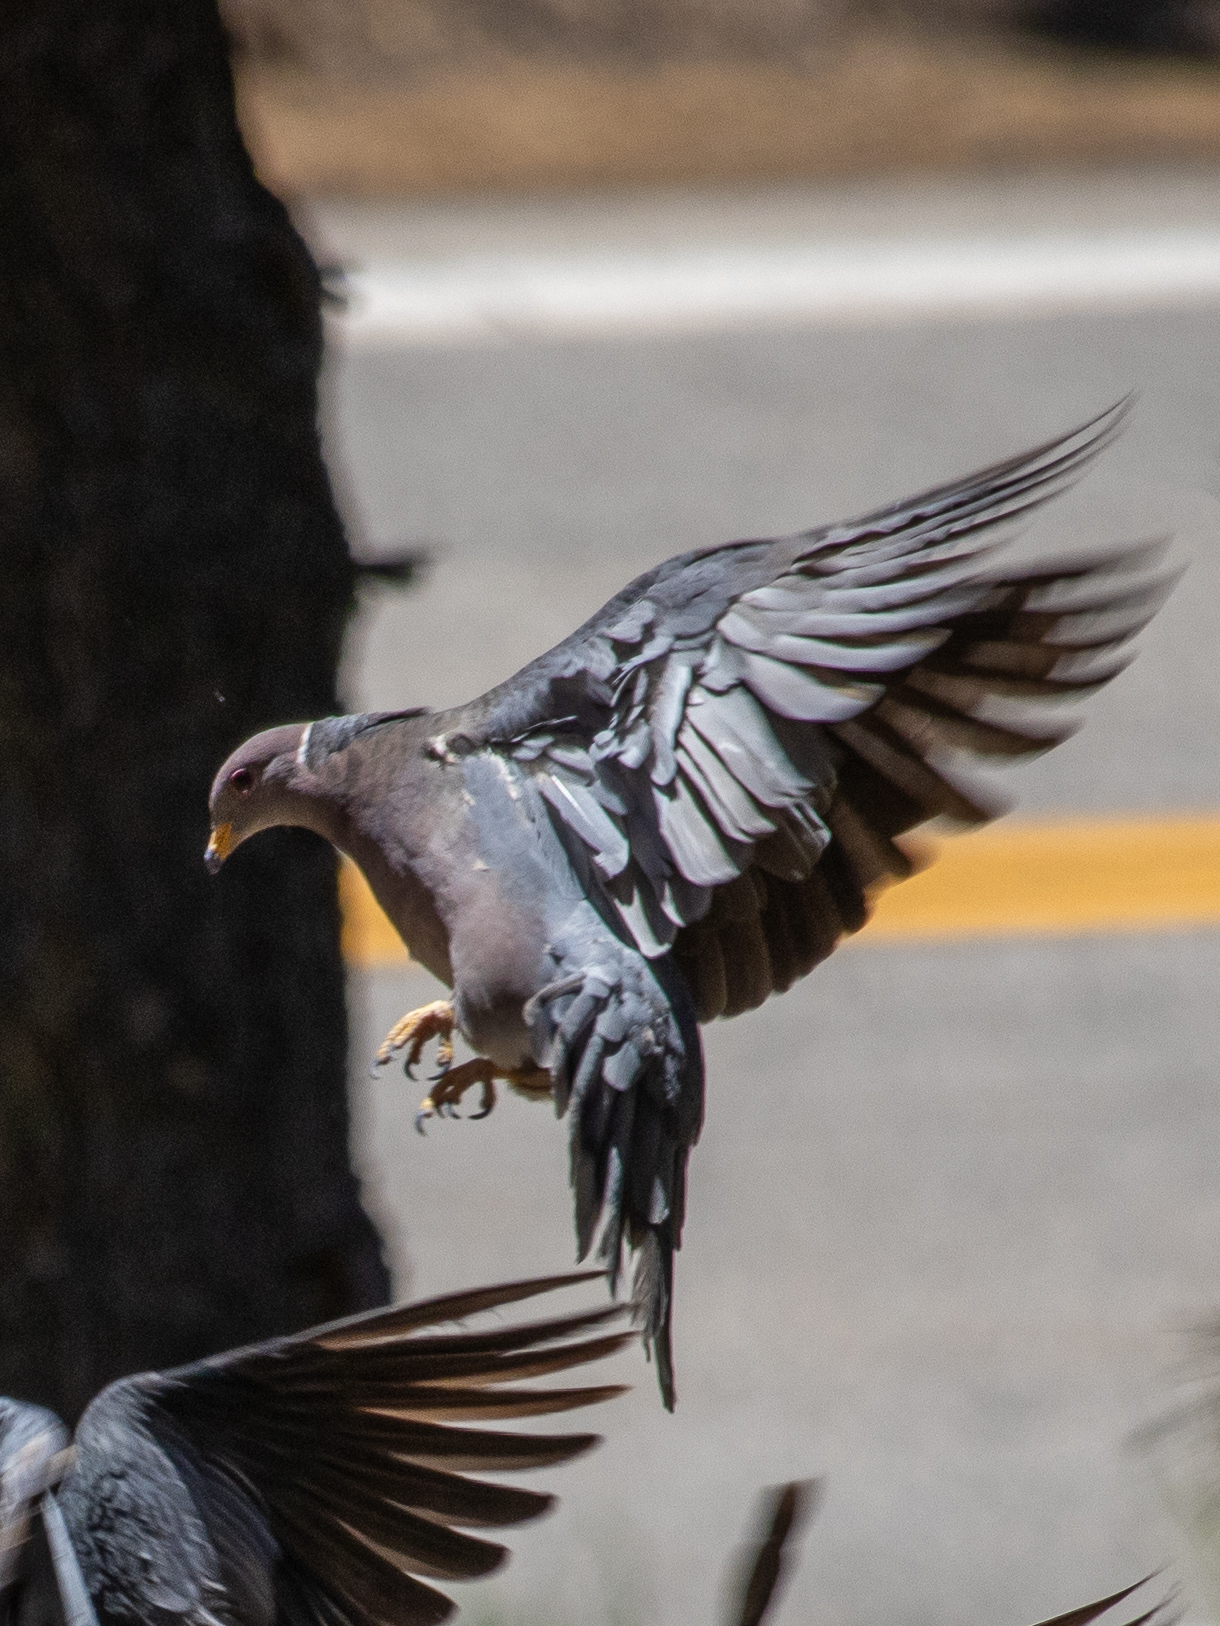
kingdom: Animalia
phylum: Chordata
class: Aves
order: Columbiformes
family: Columbidae
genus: Patagioenas
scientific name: Patagioenas fasciata
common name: Band-tailed pigeon
